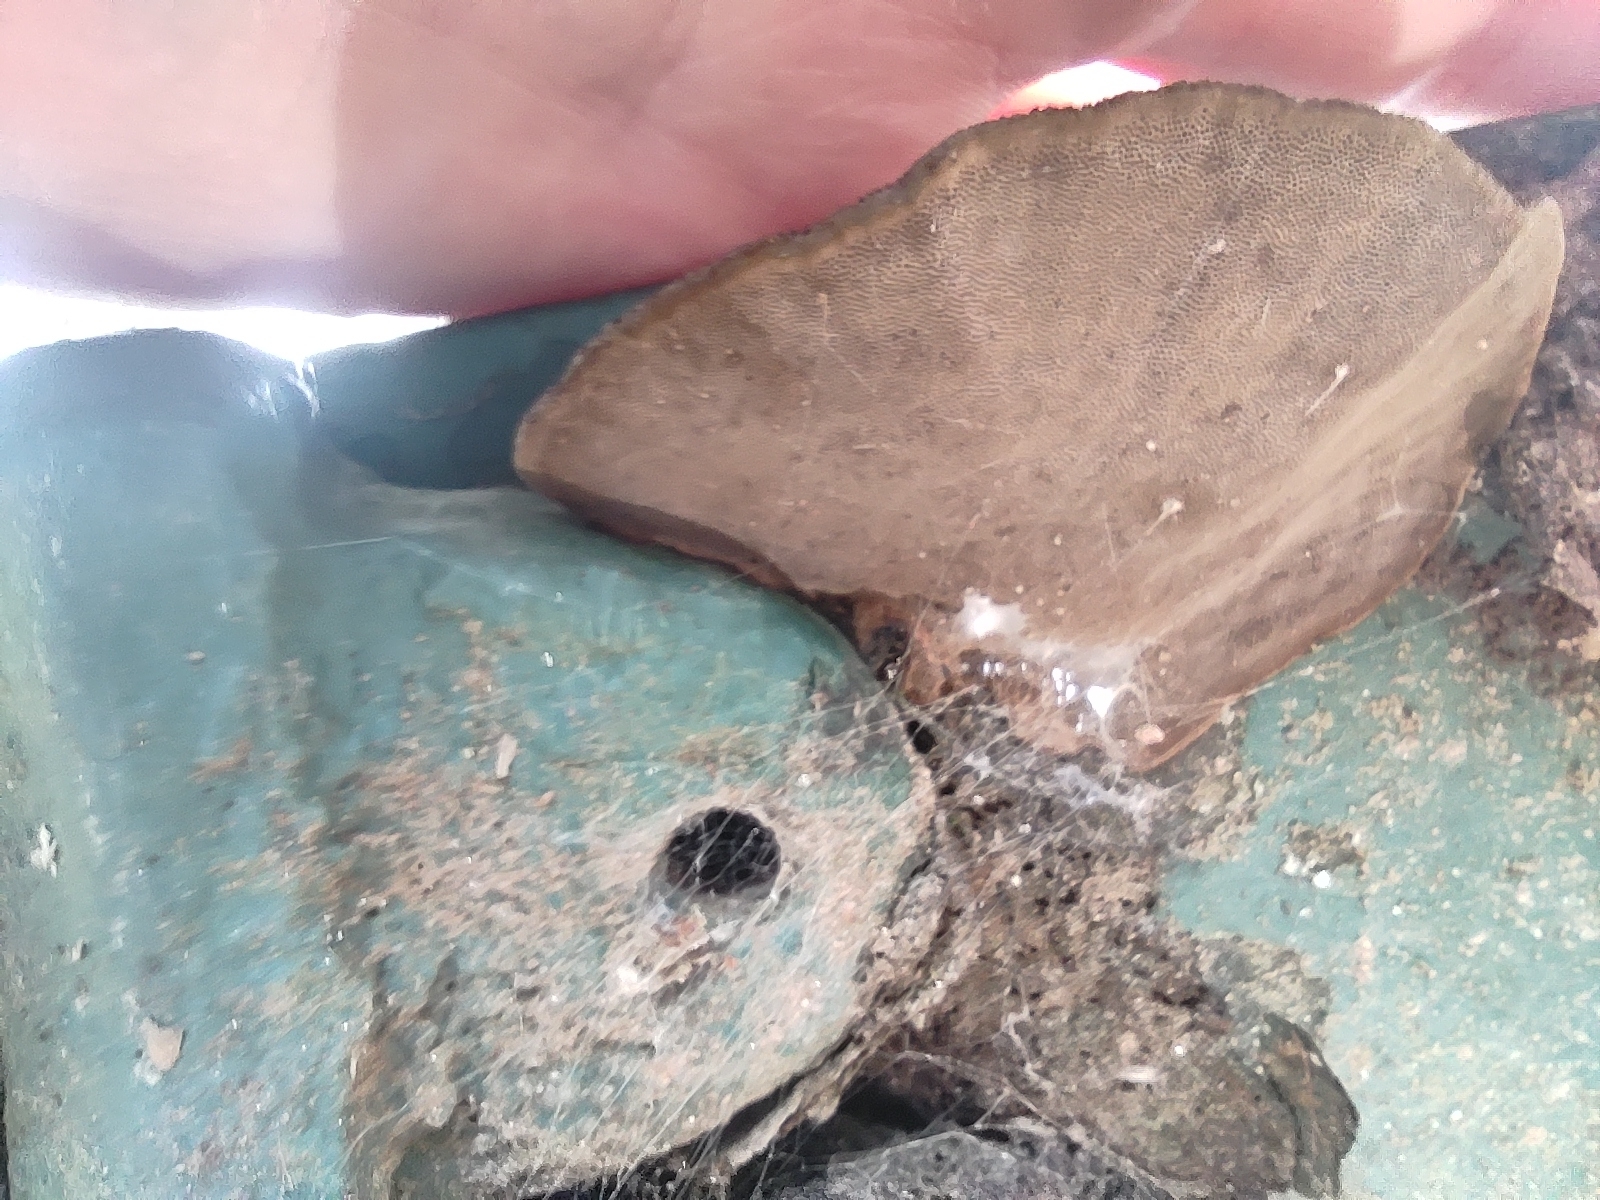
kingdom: Fungi
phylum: Basidiomycota
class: Agaricomycetes
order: Polyporales
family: Cerrenaceae
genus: Cerrena
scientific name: Cerrena hydnoides
